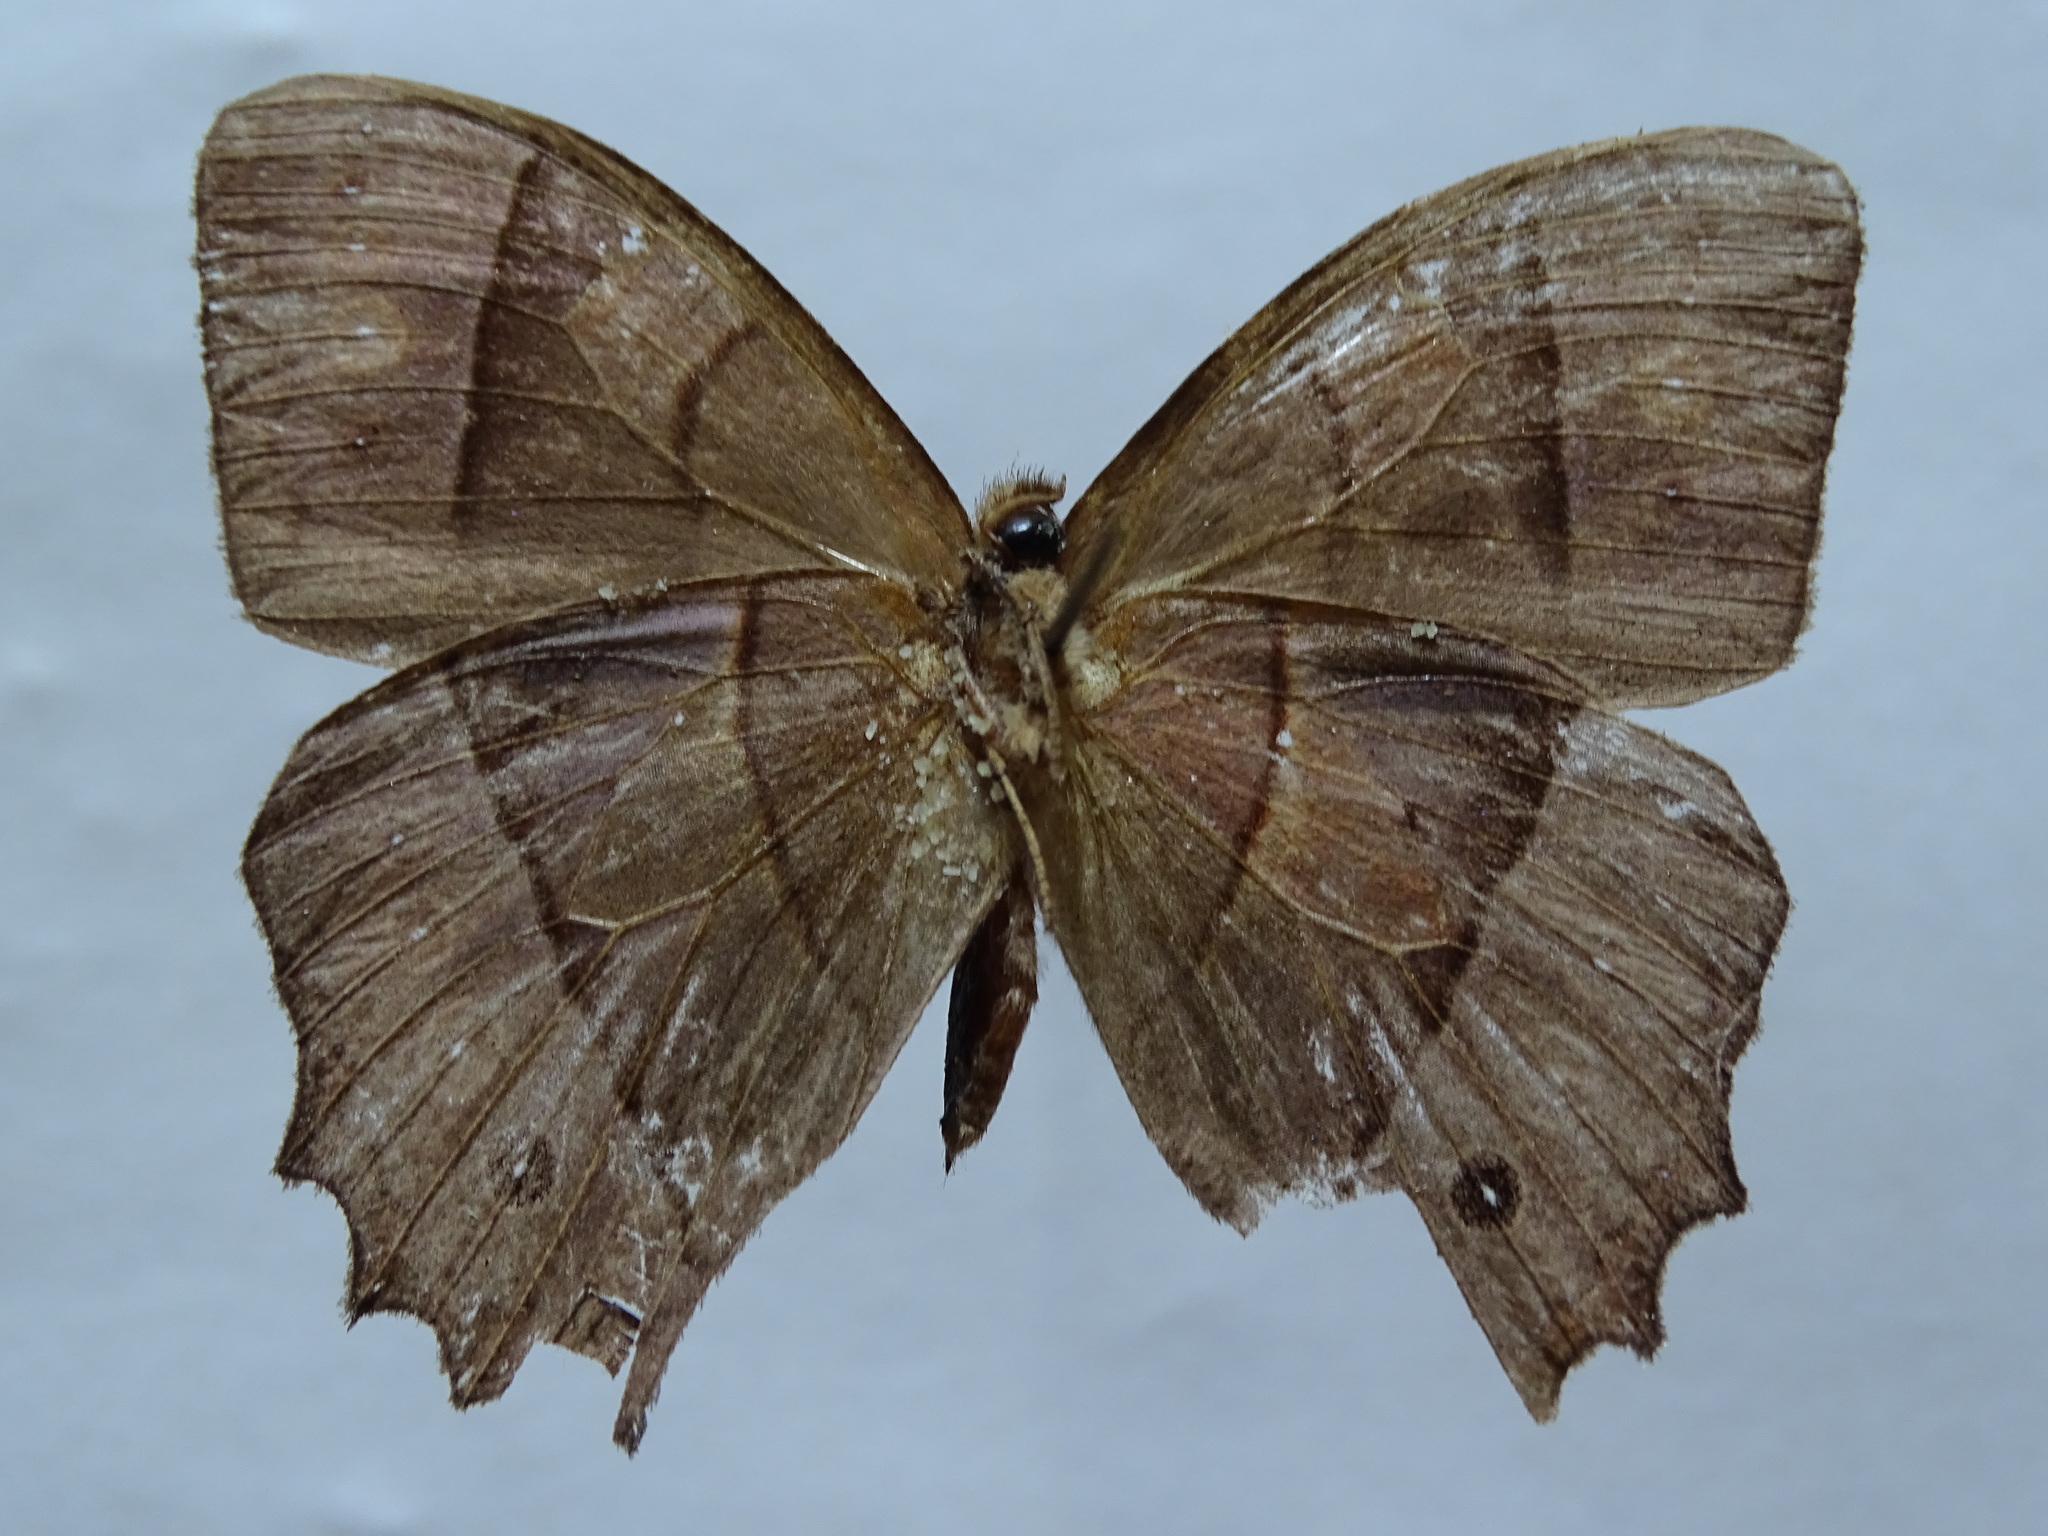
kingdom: Animalia
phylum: Arthropoda
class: Insecta
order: Lepidoptera
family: Nymphalidae
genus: Taygetis
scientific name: Taygetis salvini
